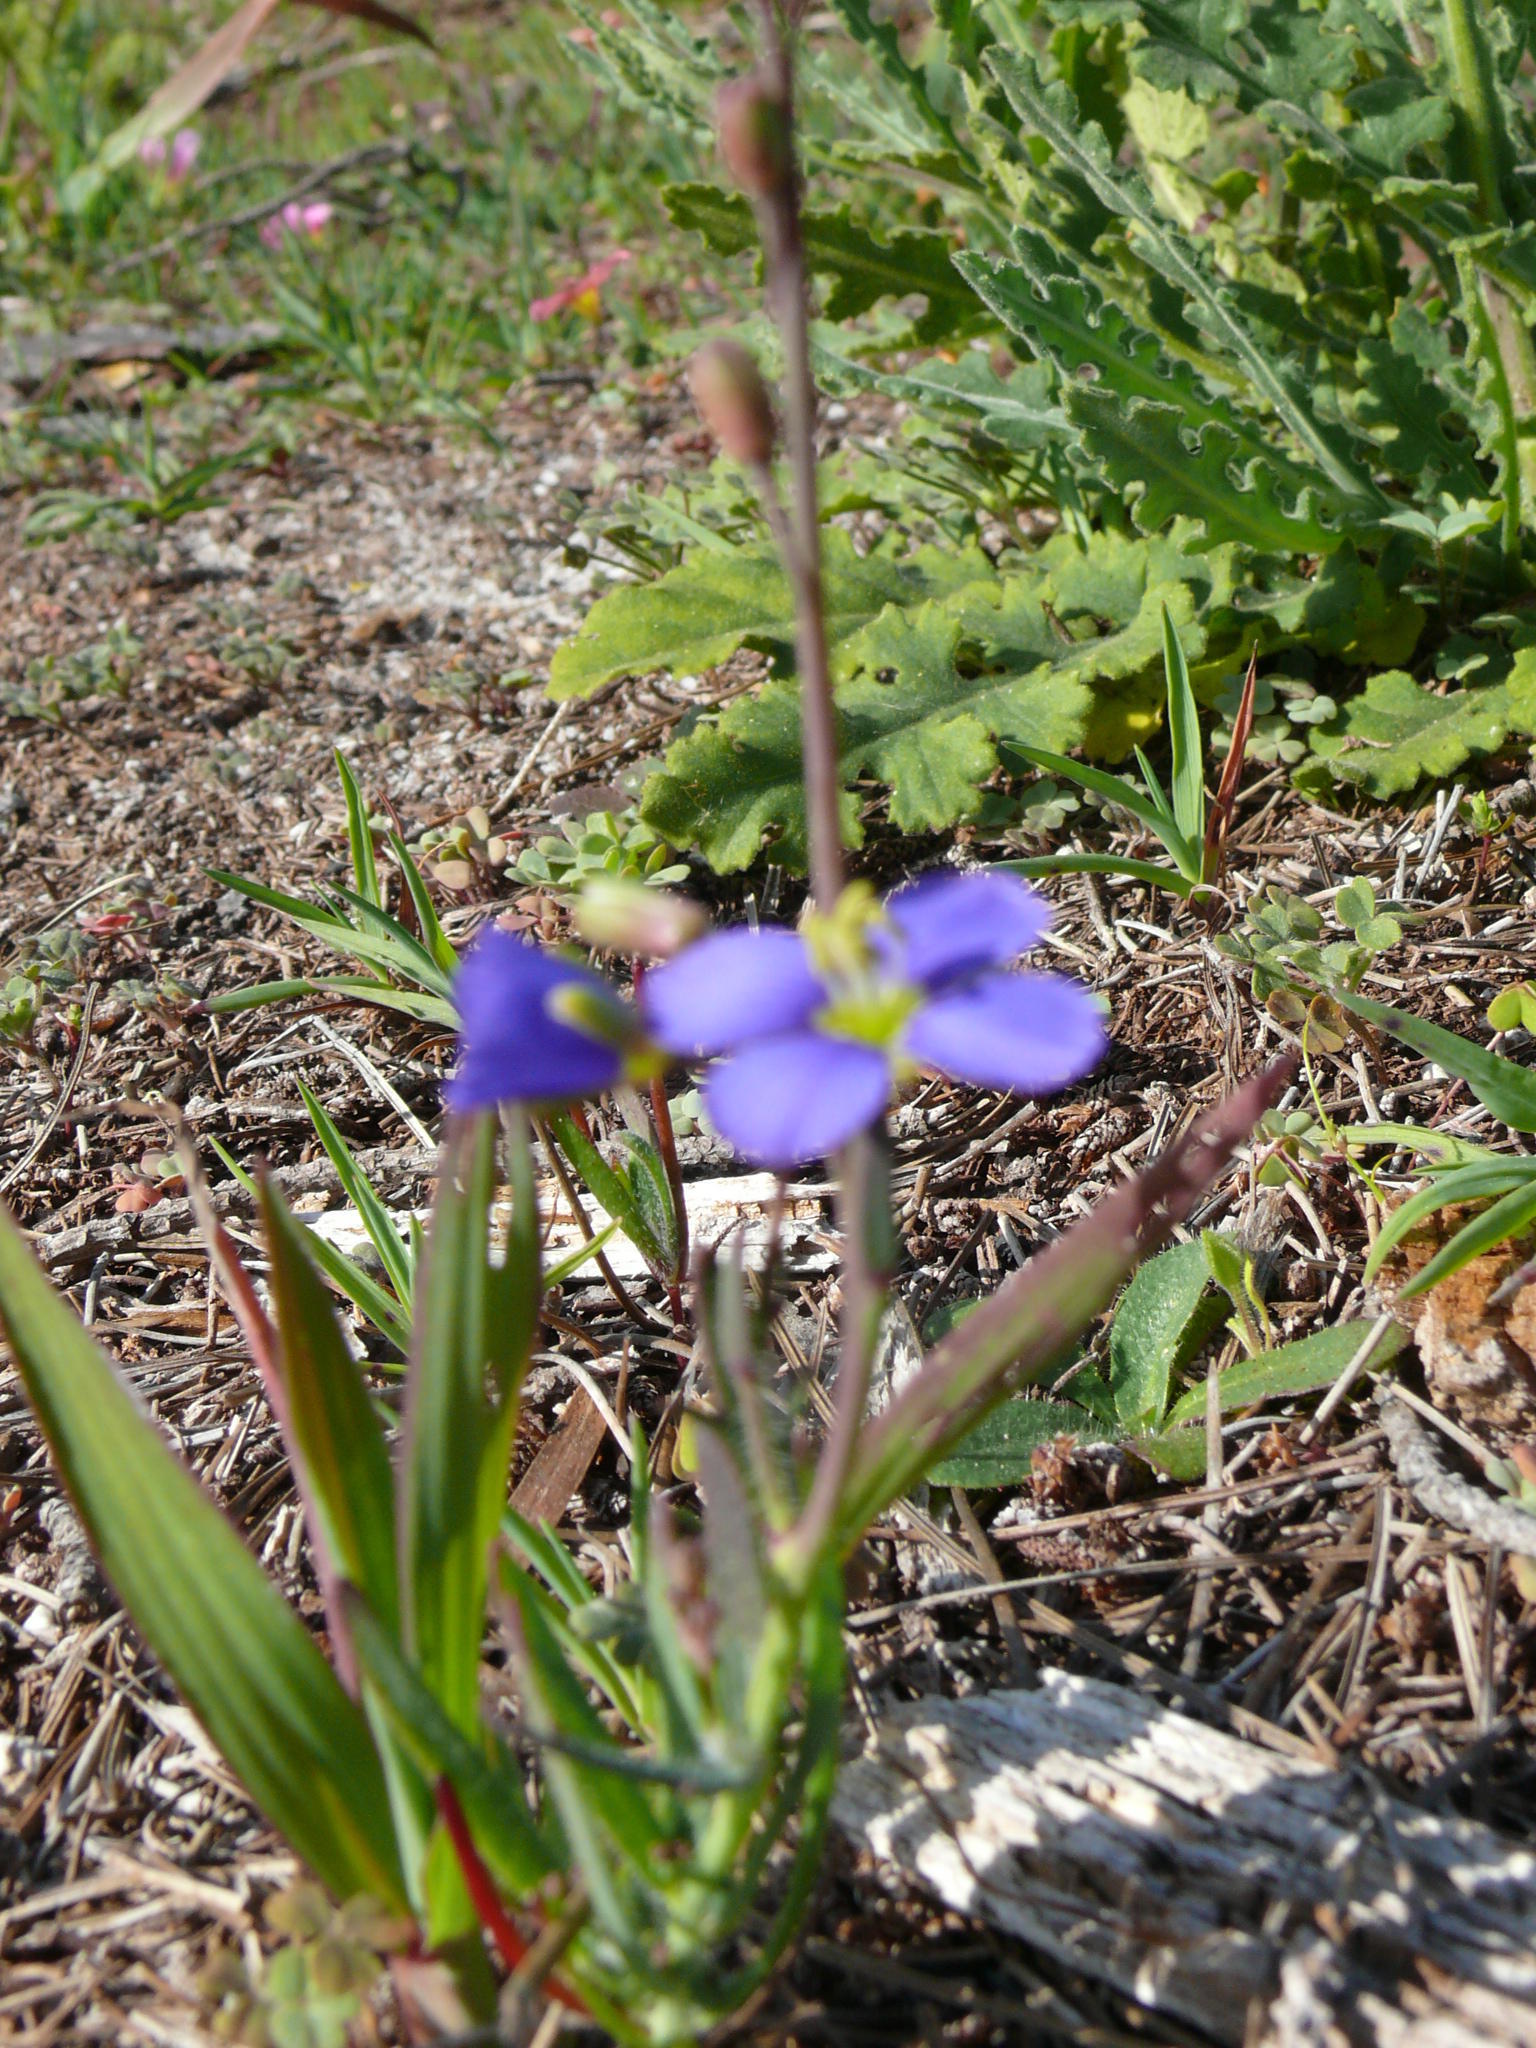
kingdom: Plantae
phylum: Tracheophyta
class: Magnoliopsida
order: Brassicales
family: Brassicaceae
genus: Heliophila
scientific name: Heliophila africana
